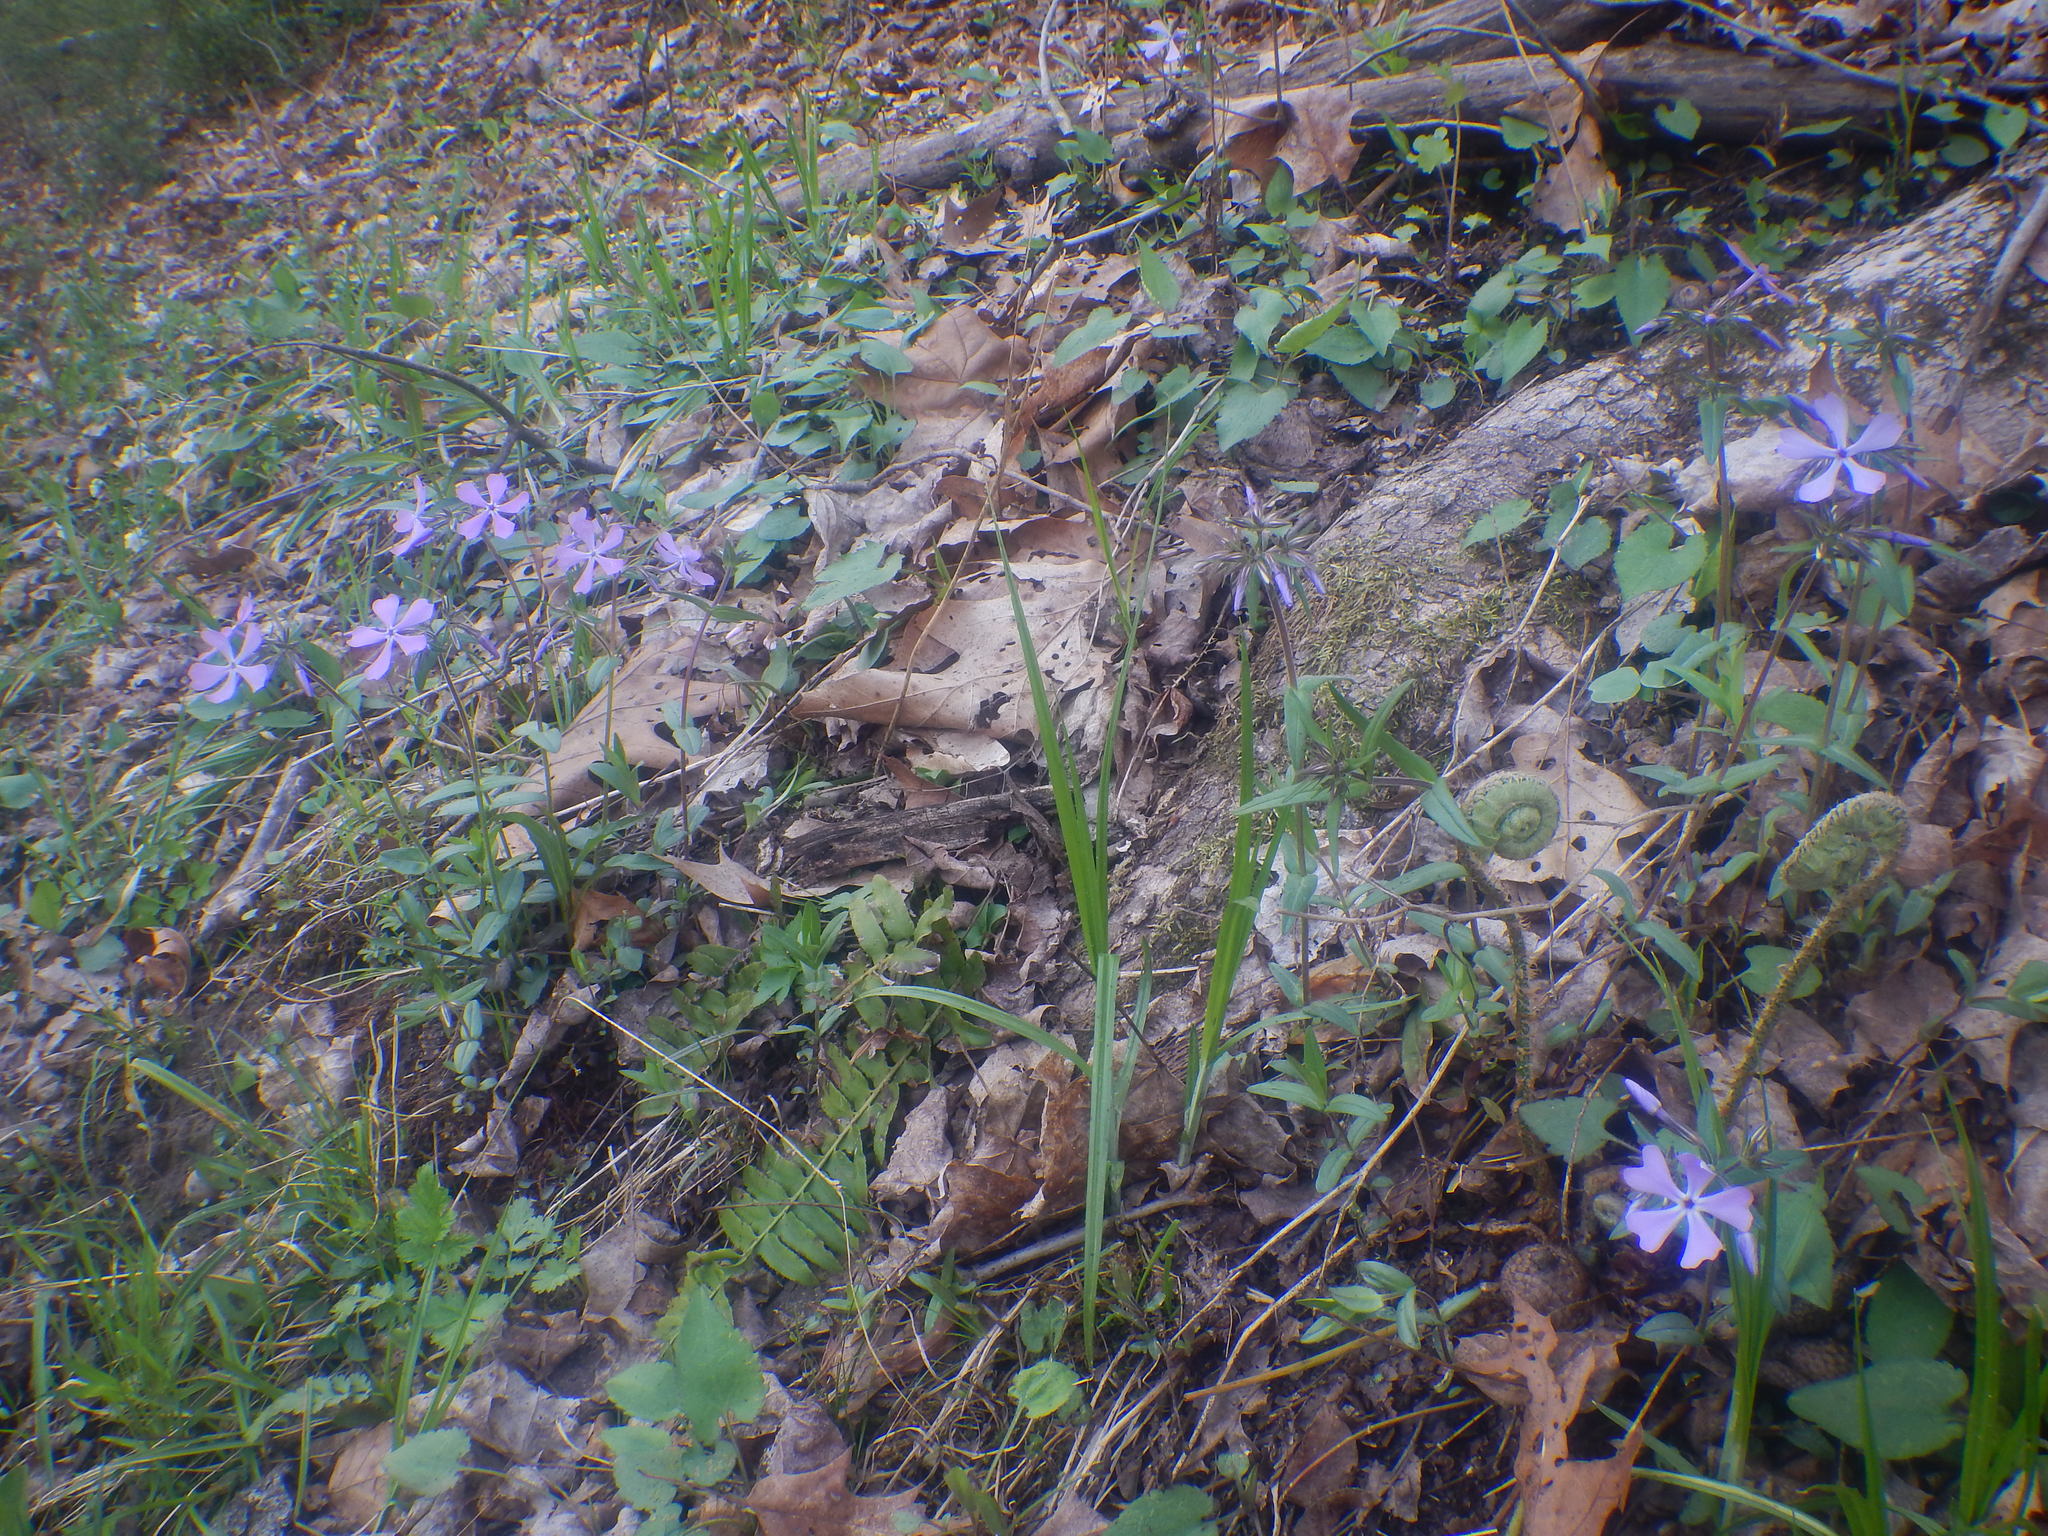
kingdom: Plantae
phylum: Tracheophyta
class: Magnoliopsida
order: Ericales
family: Polemoniaceae
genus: Phlox
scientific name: Phlox divaricata
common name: Blue phlox
